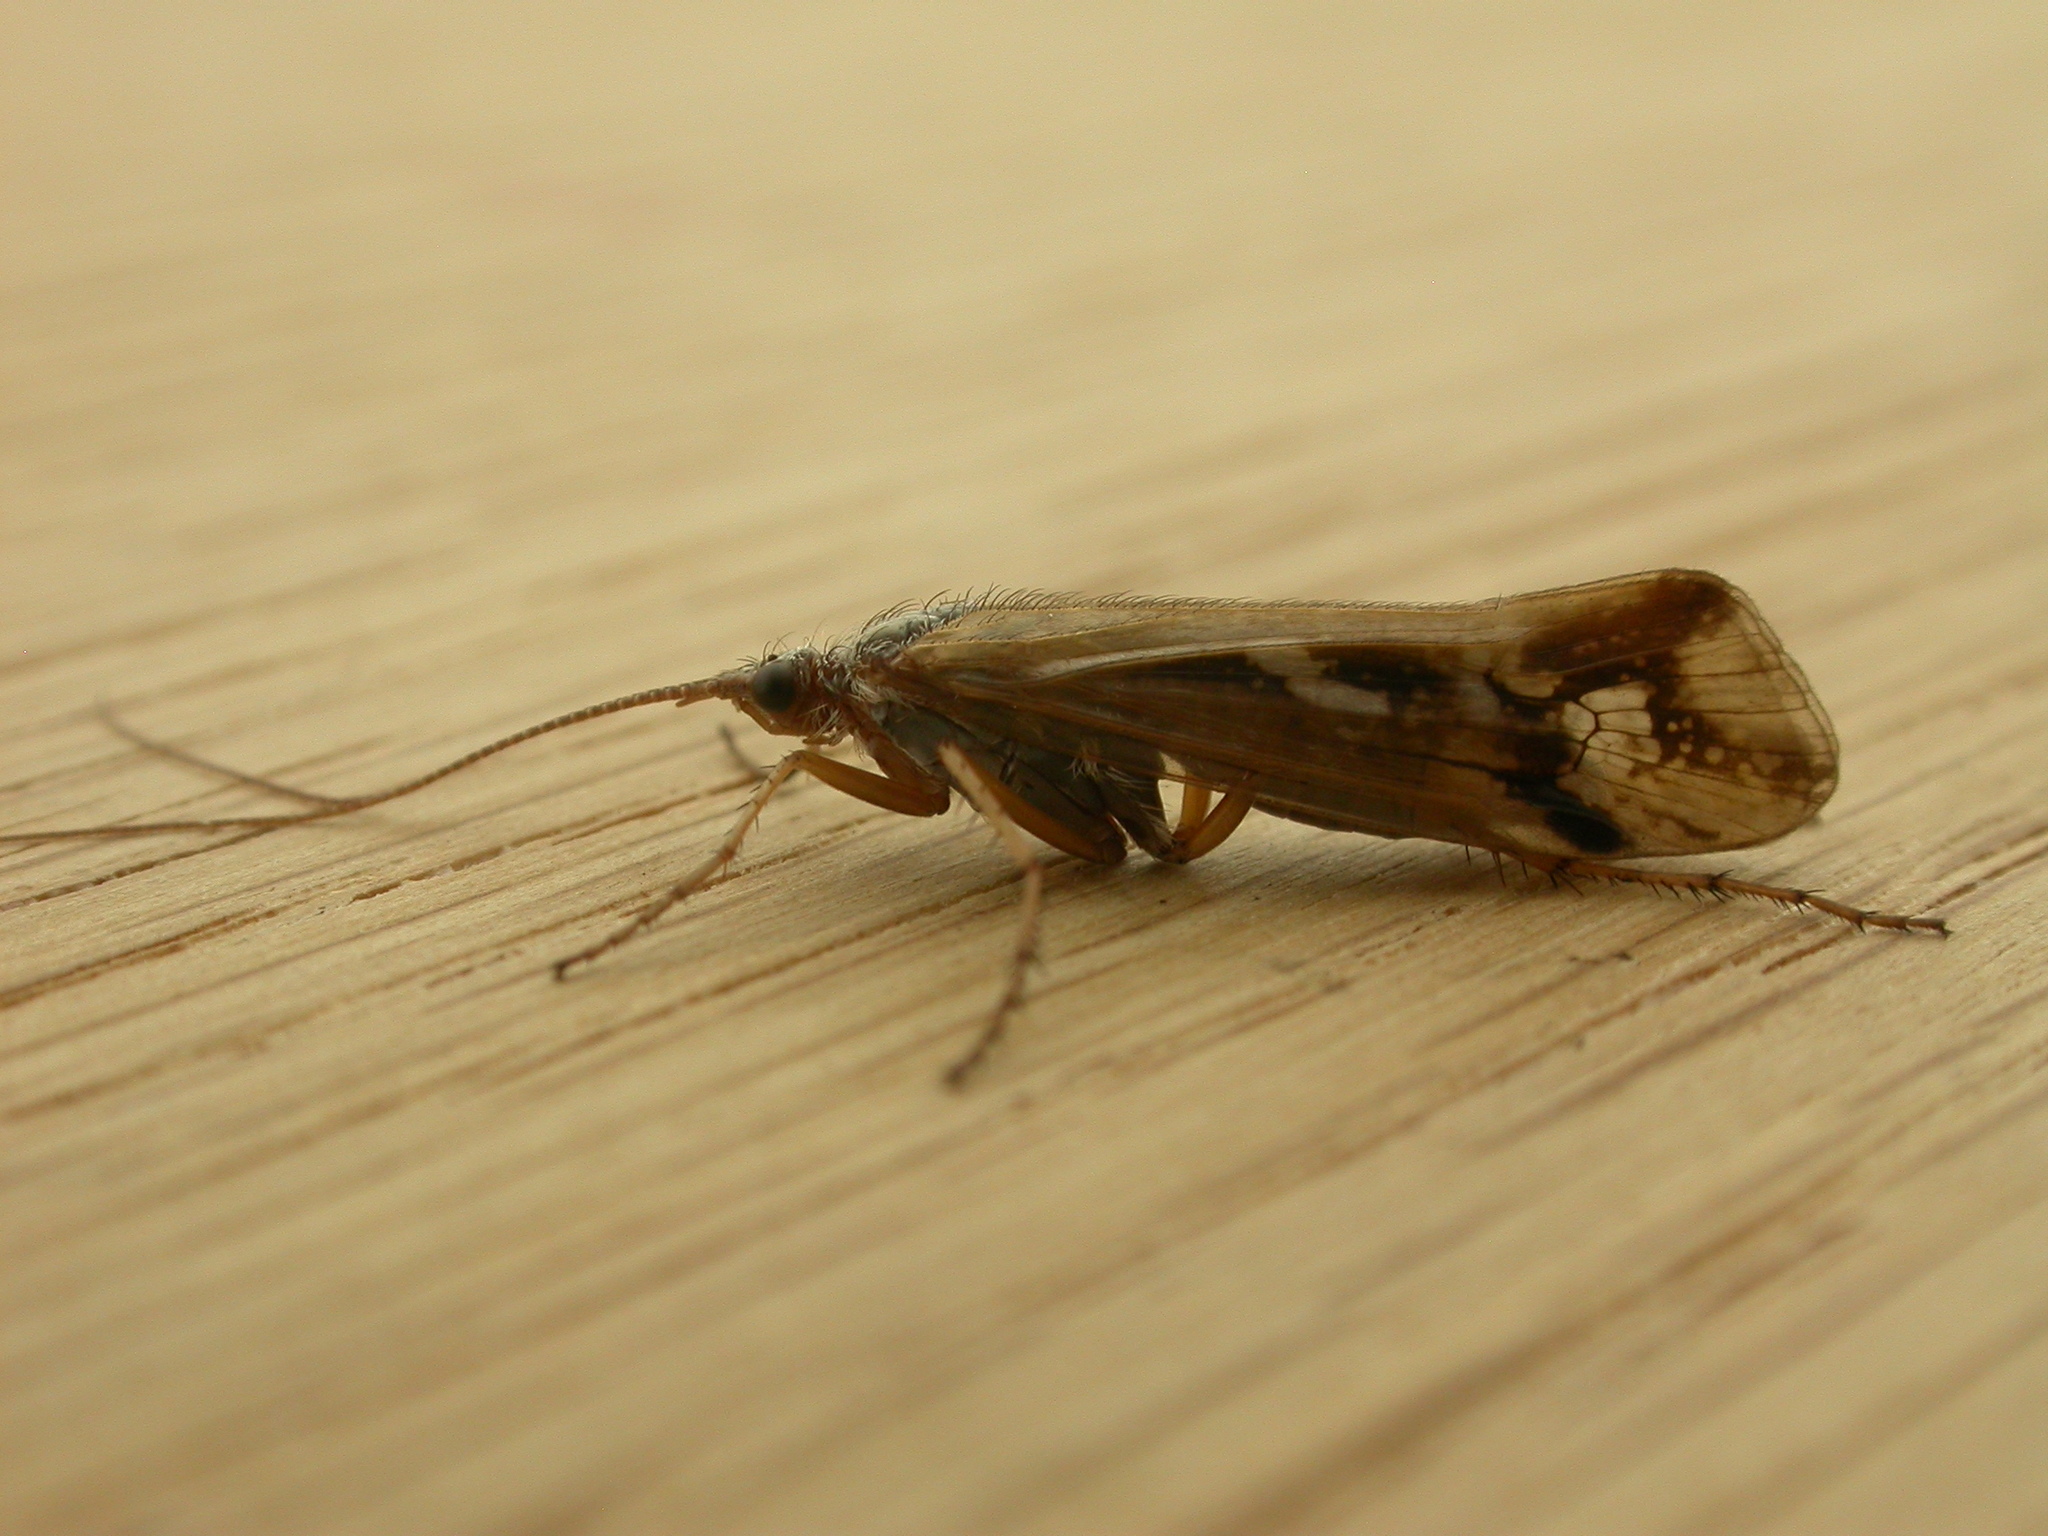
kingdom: Animalia
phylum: Arthropoda
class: Insecta
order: Trichoptera
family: Limnephilidae
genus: Limnephilus
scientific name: Limnephilus binotatus
